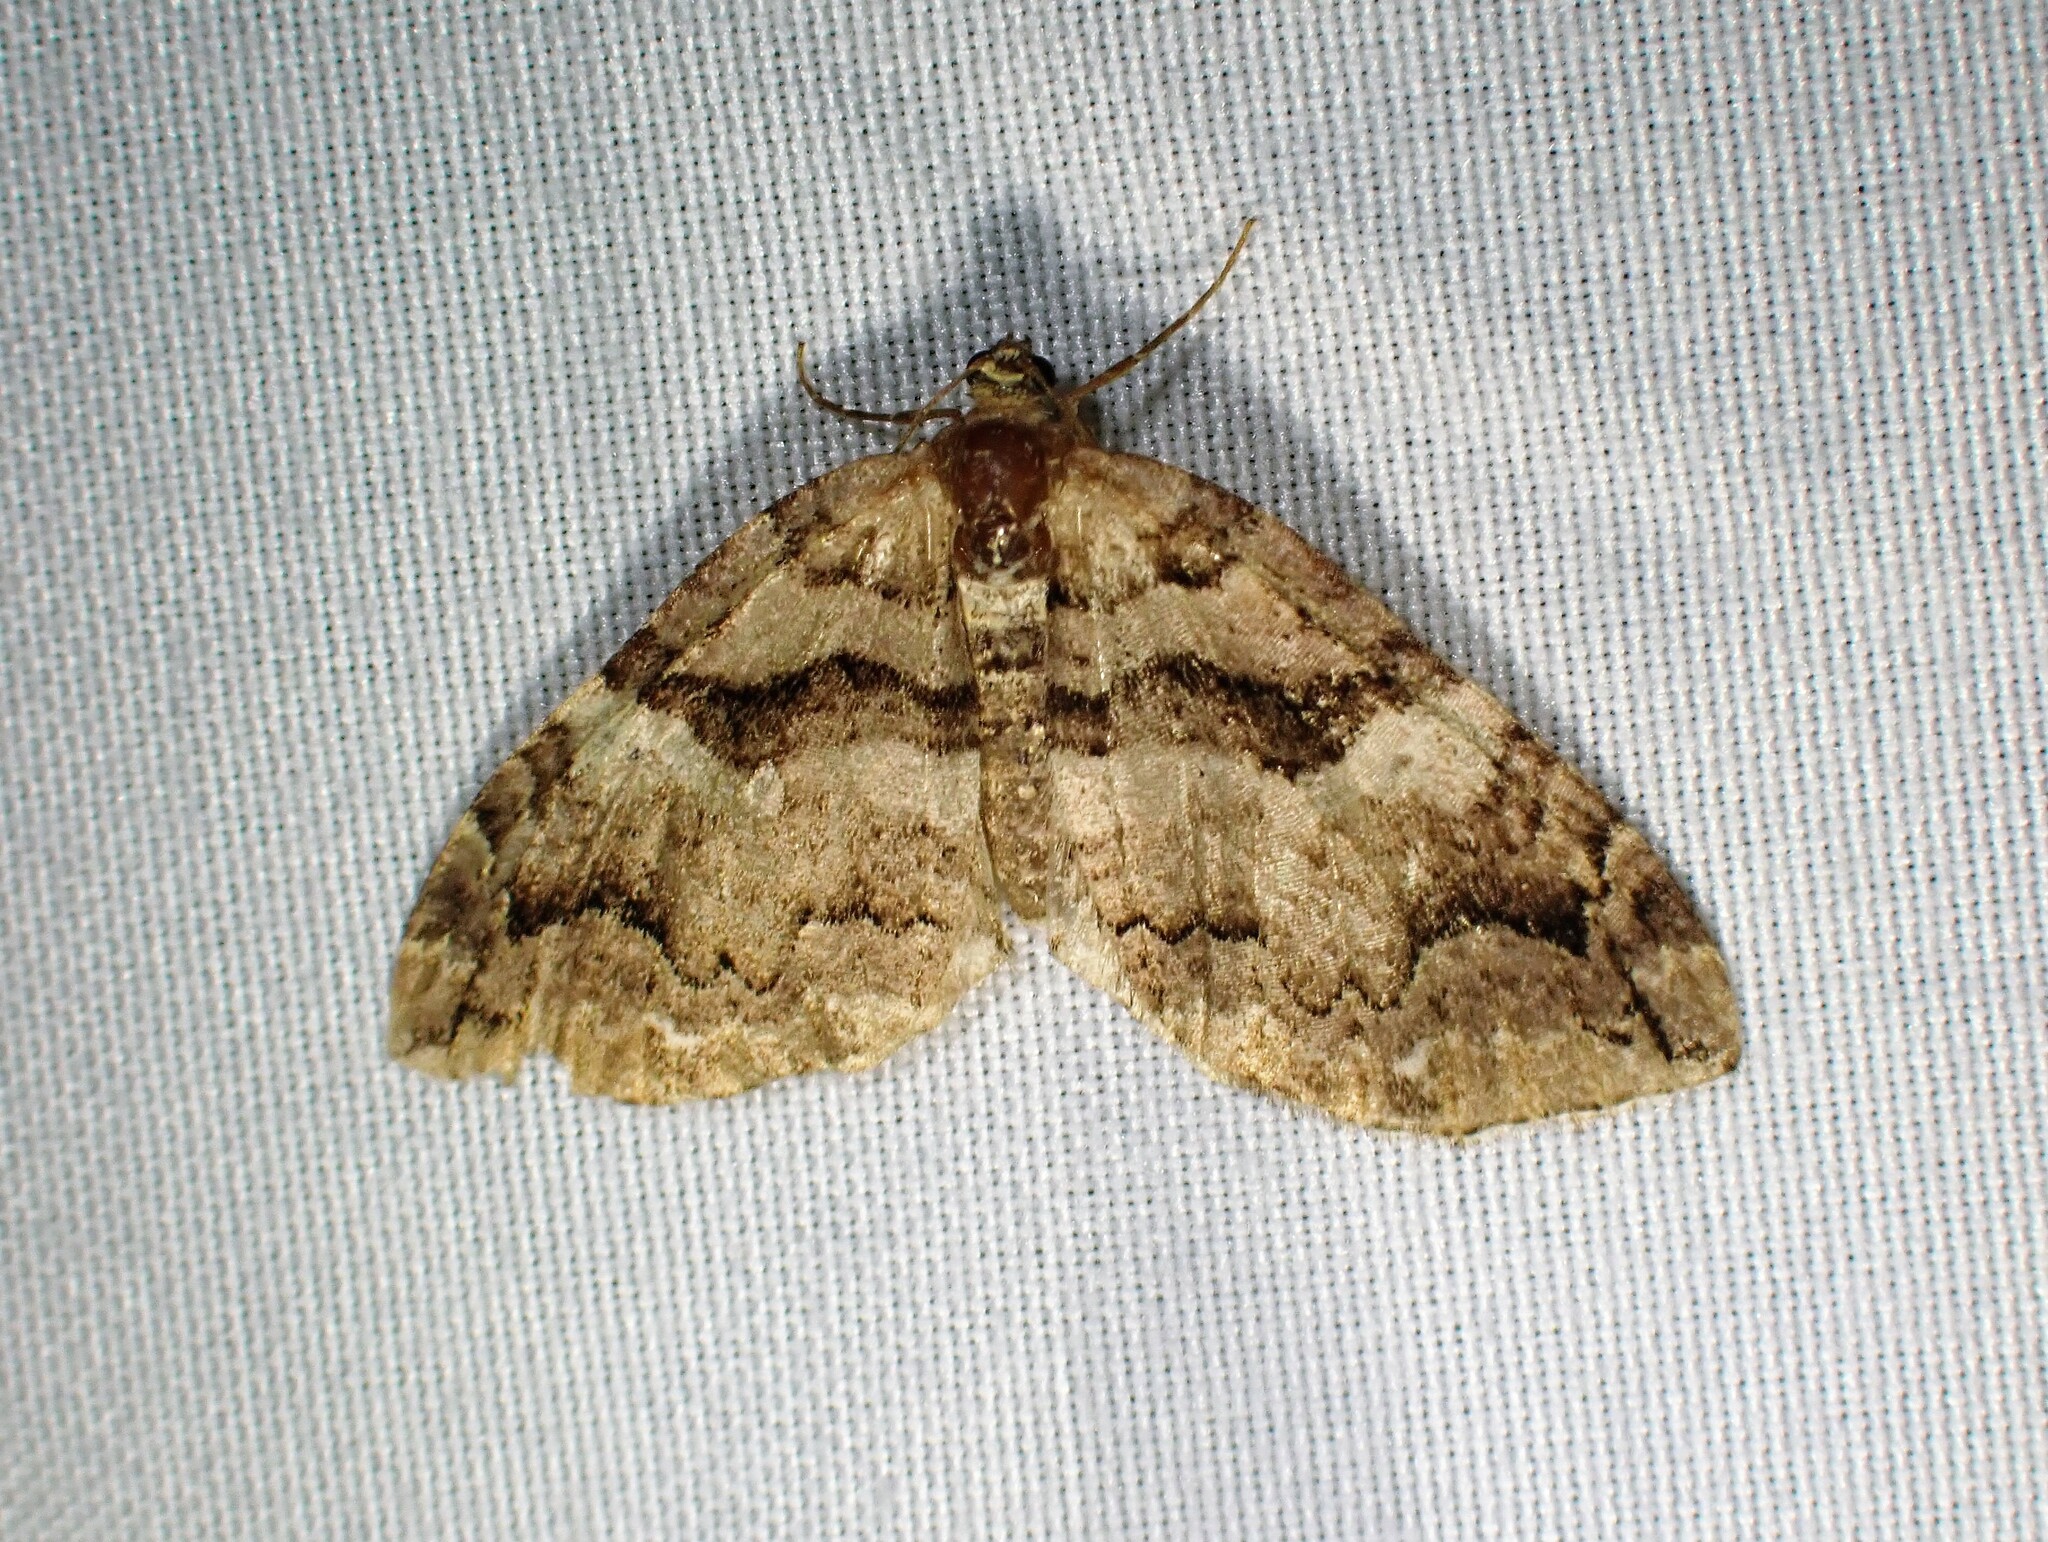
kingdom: Animalia
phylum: Arthropoda
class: Insecta
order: Lepidoptera
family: Geometridae
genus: Anticlea
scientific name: Anticlea vasiliata
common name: Variable carpet
